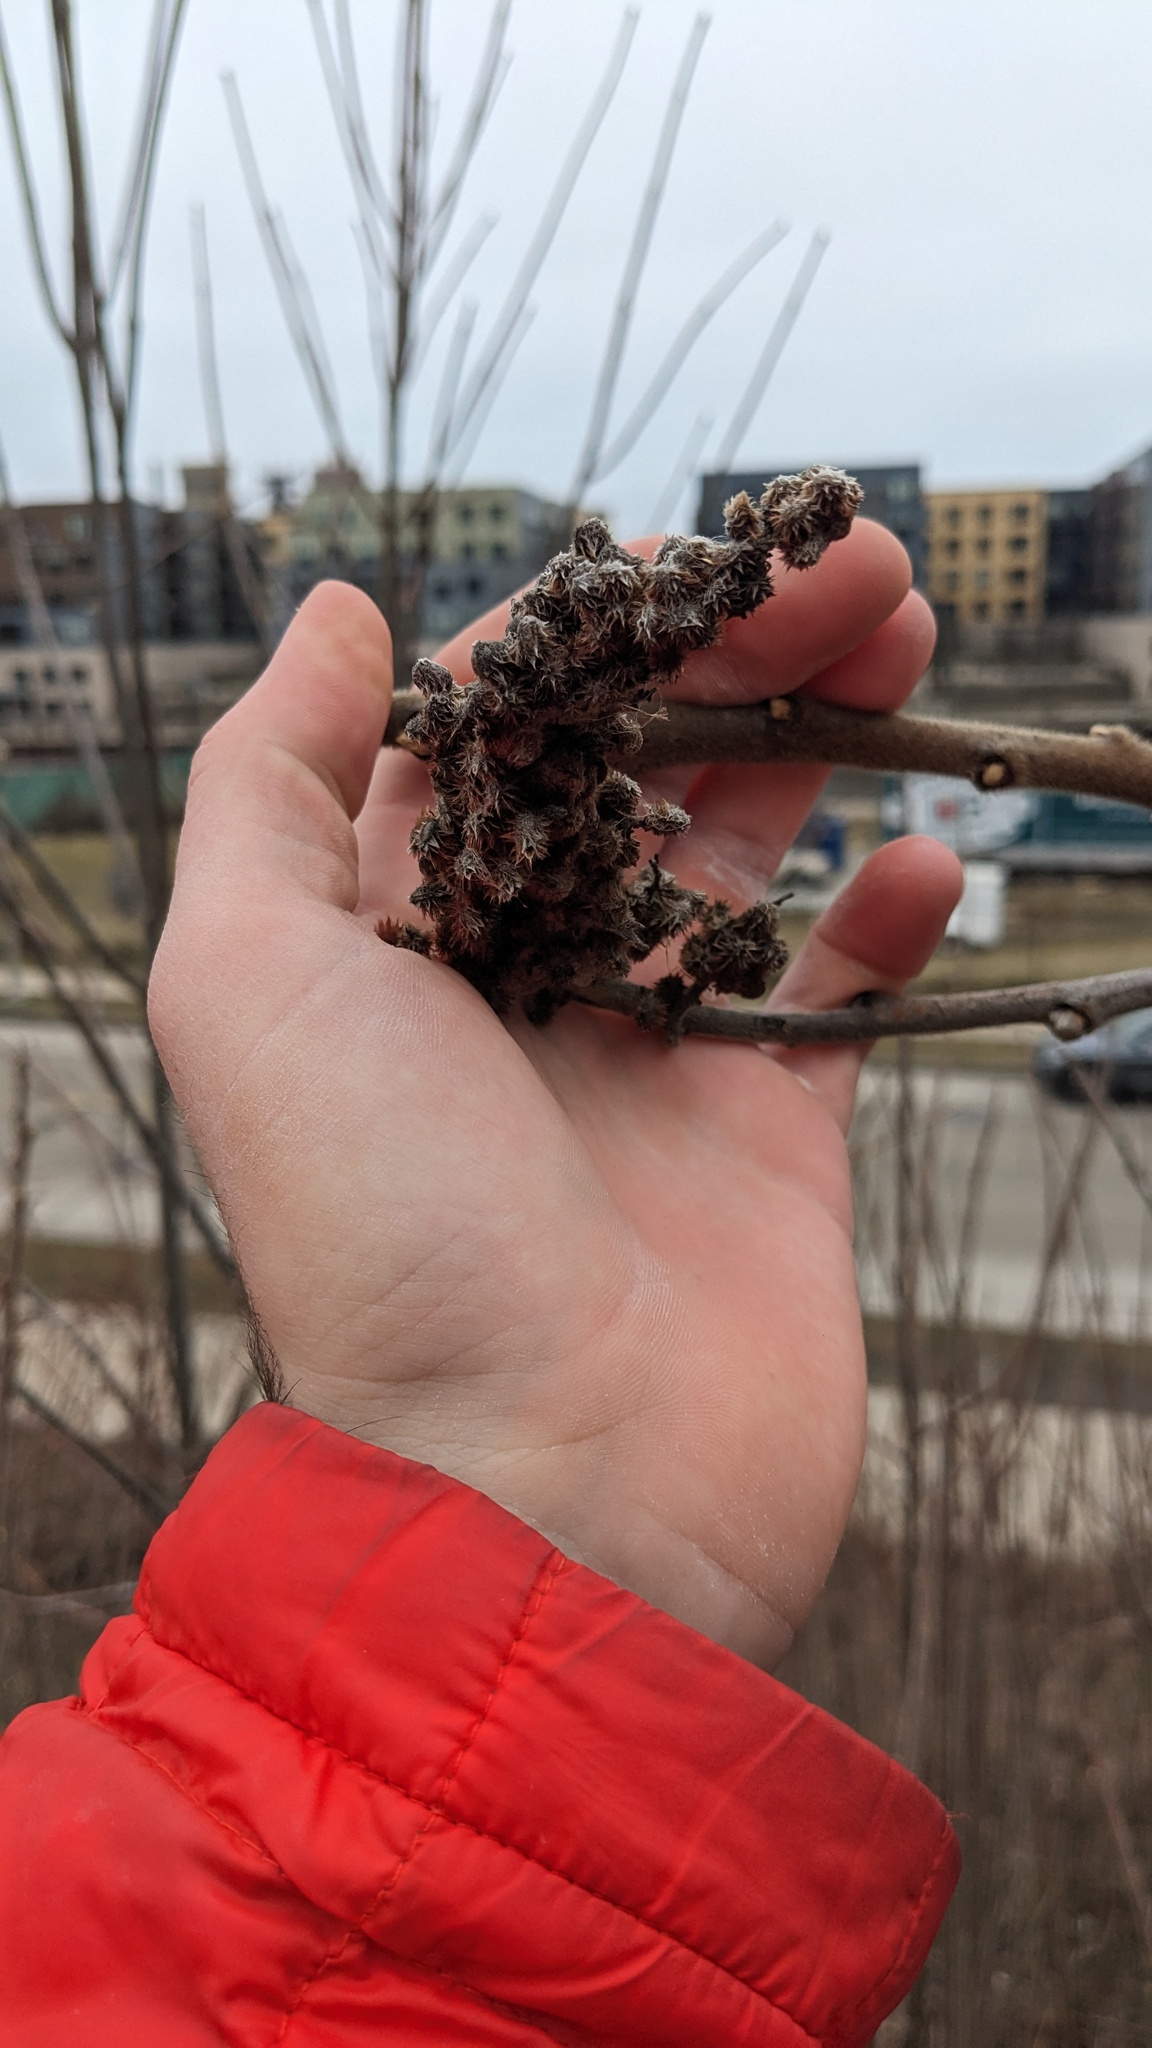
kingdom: Plantae
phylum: Tracheophyta
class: Magnoliopsida
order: Sapindales
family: Anacardiaceae
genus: Rhus
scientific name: Rhus typhina
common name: Staghorn sumac
